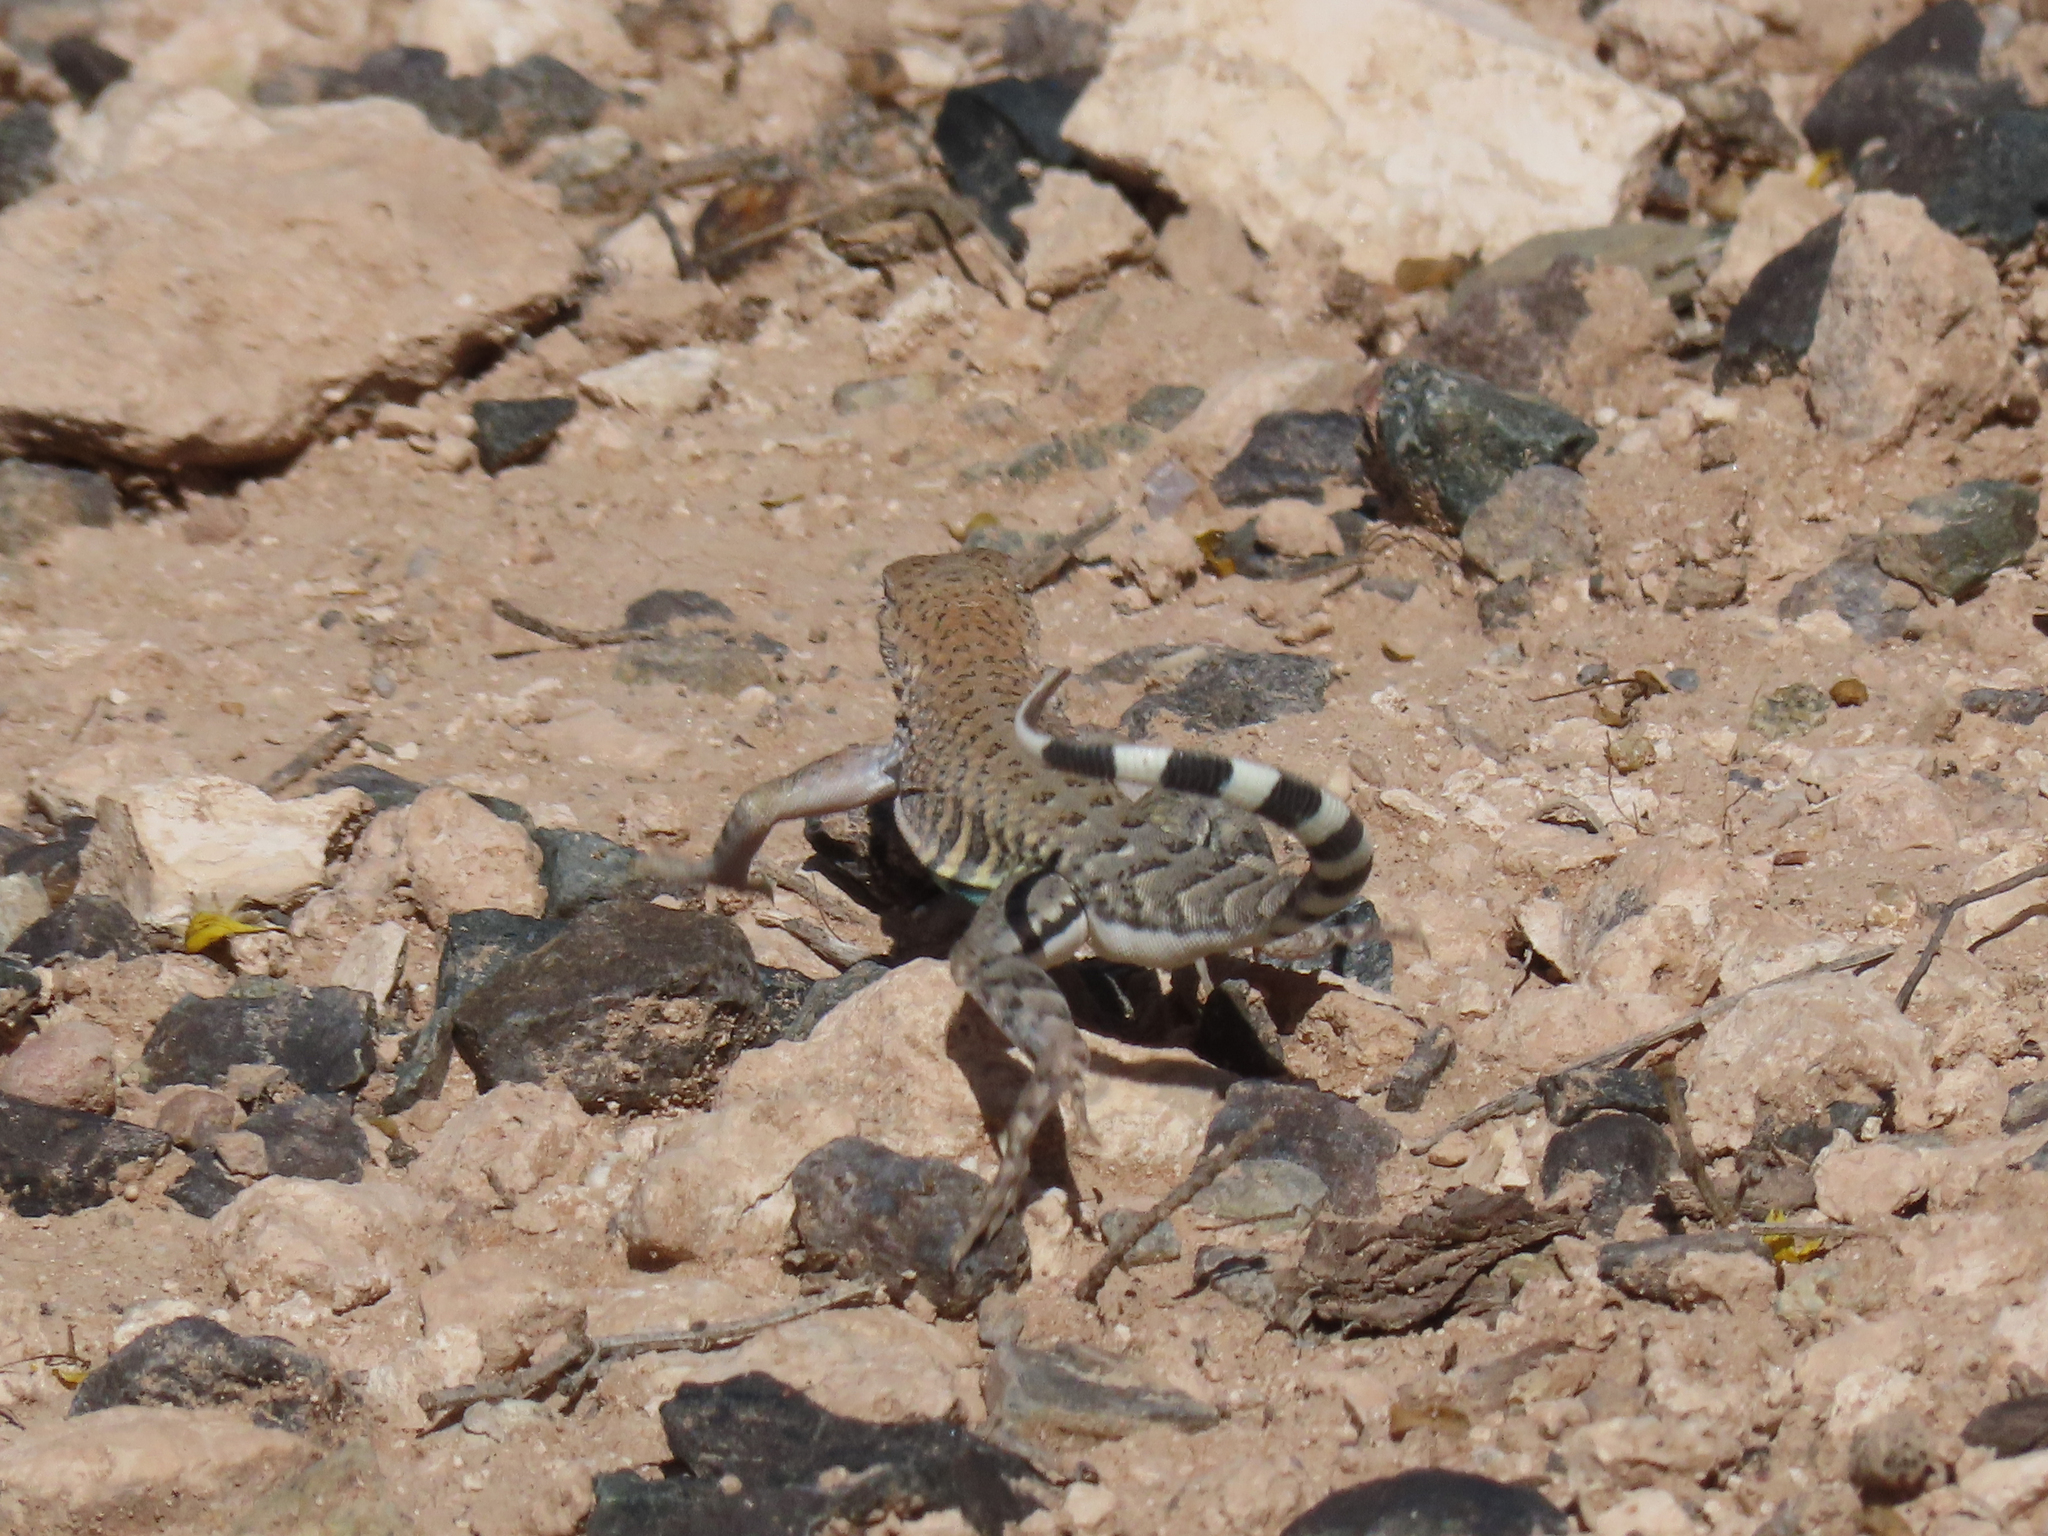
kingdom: Animalia
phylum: Chordata
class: Squamata
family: Phrynosomatidae
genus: Cophosaurus
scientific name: Cophosaurus texanus
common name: Greater earless lizard
